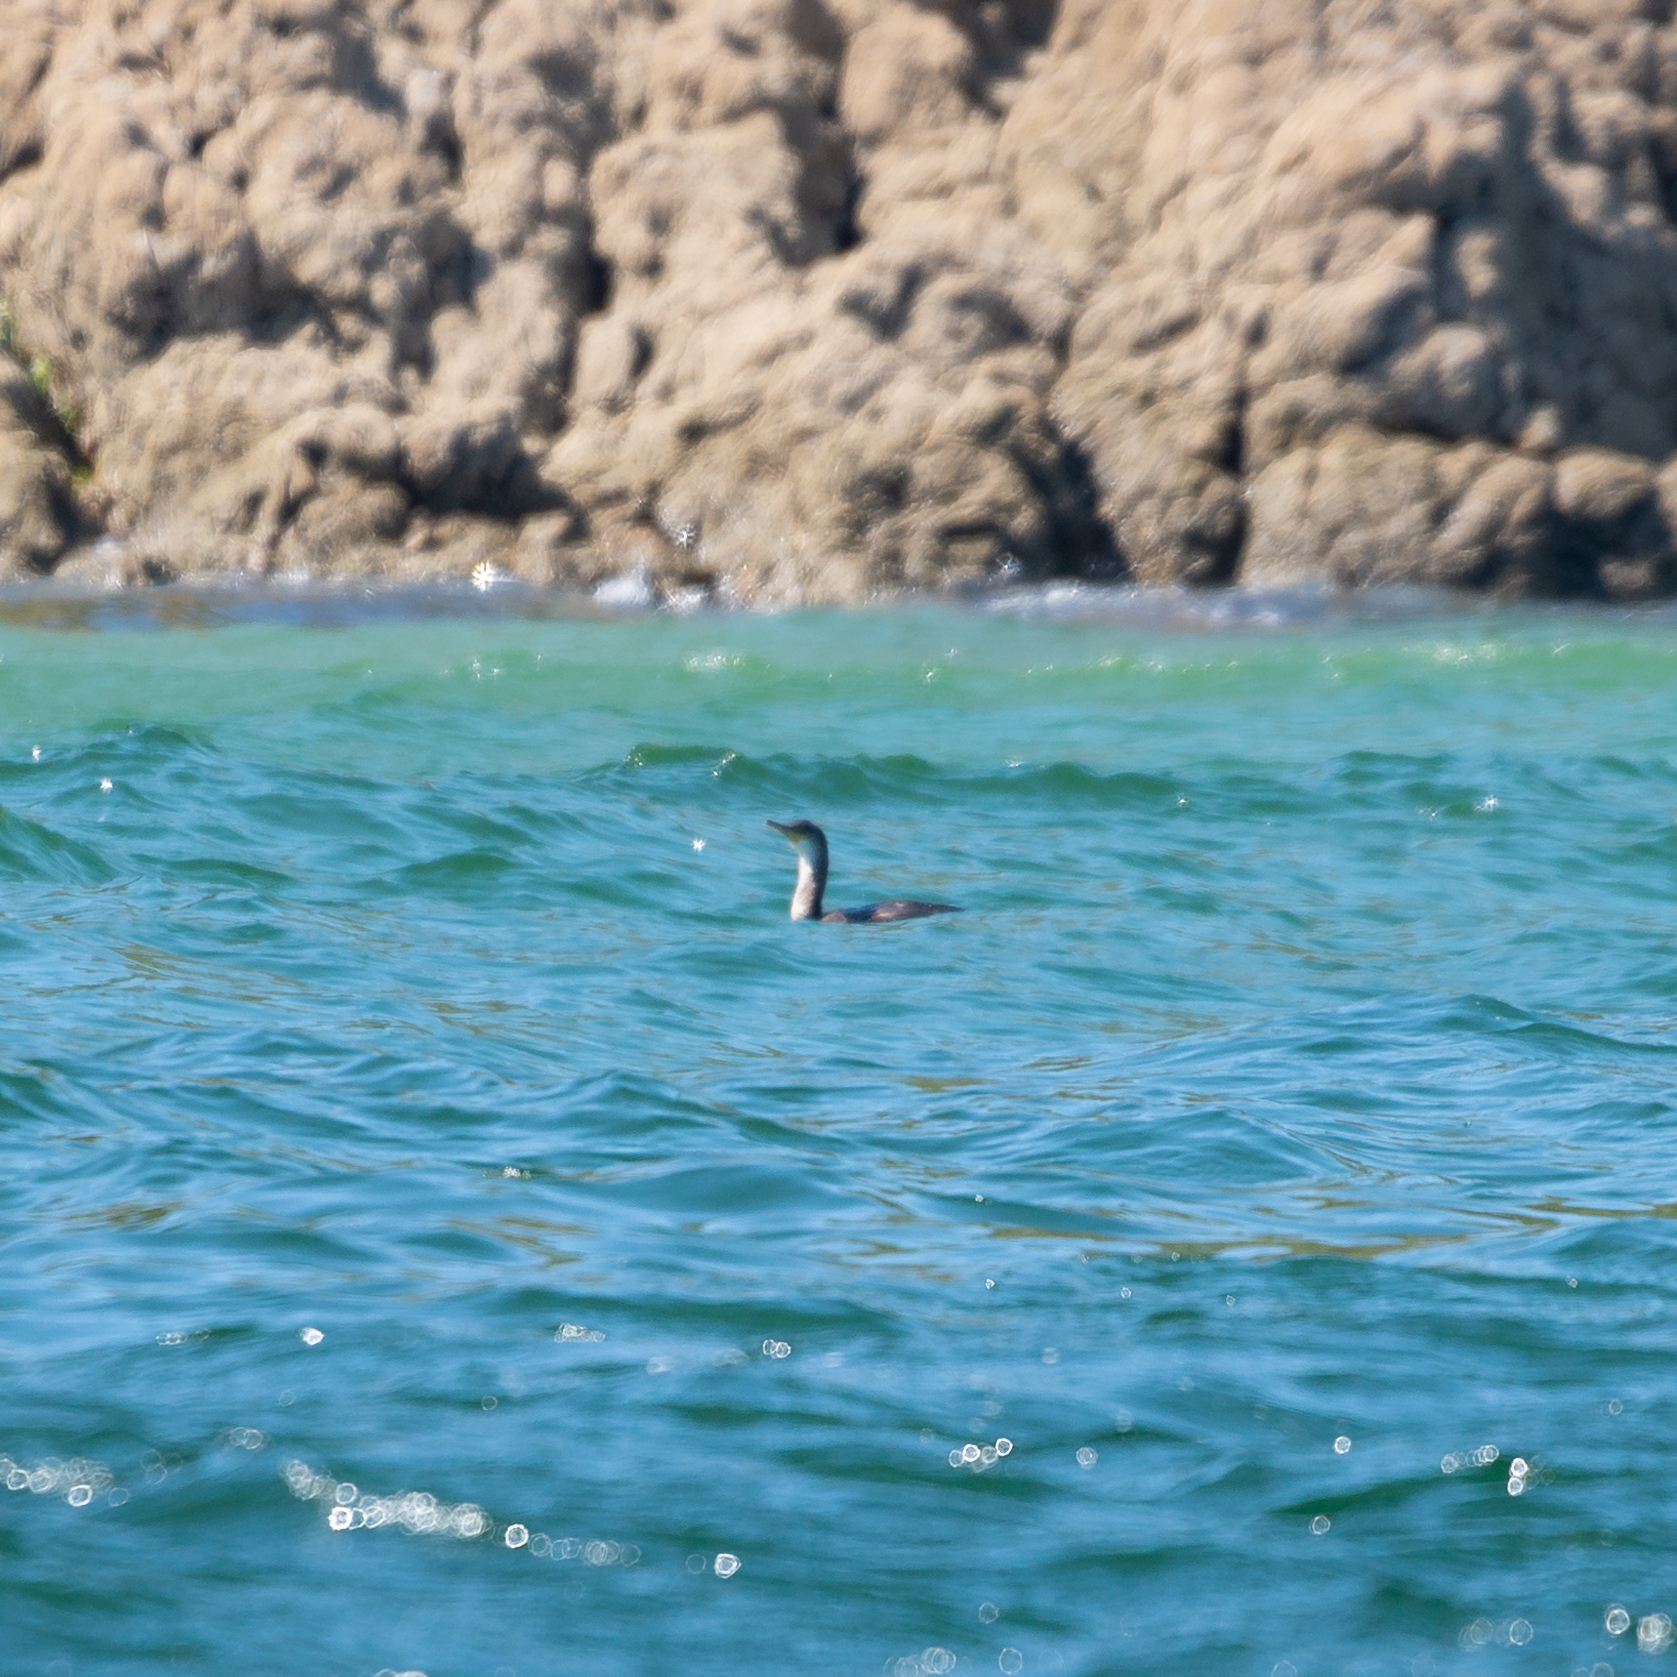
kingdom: Animalia
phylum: Chordata
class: Aves
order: Suliformes
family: Phalacrocoracidae
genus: Phalacrocorax
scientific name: Phalacrocorax aristotelis
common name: European shag
